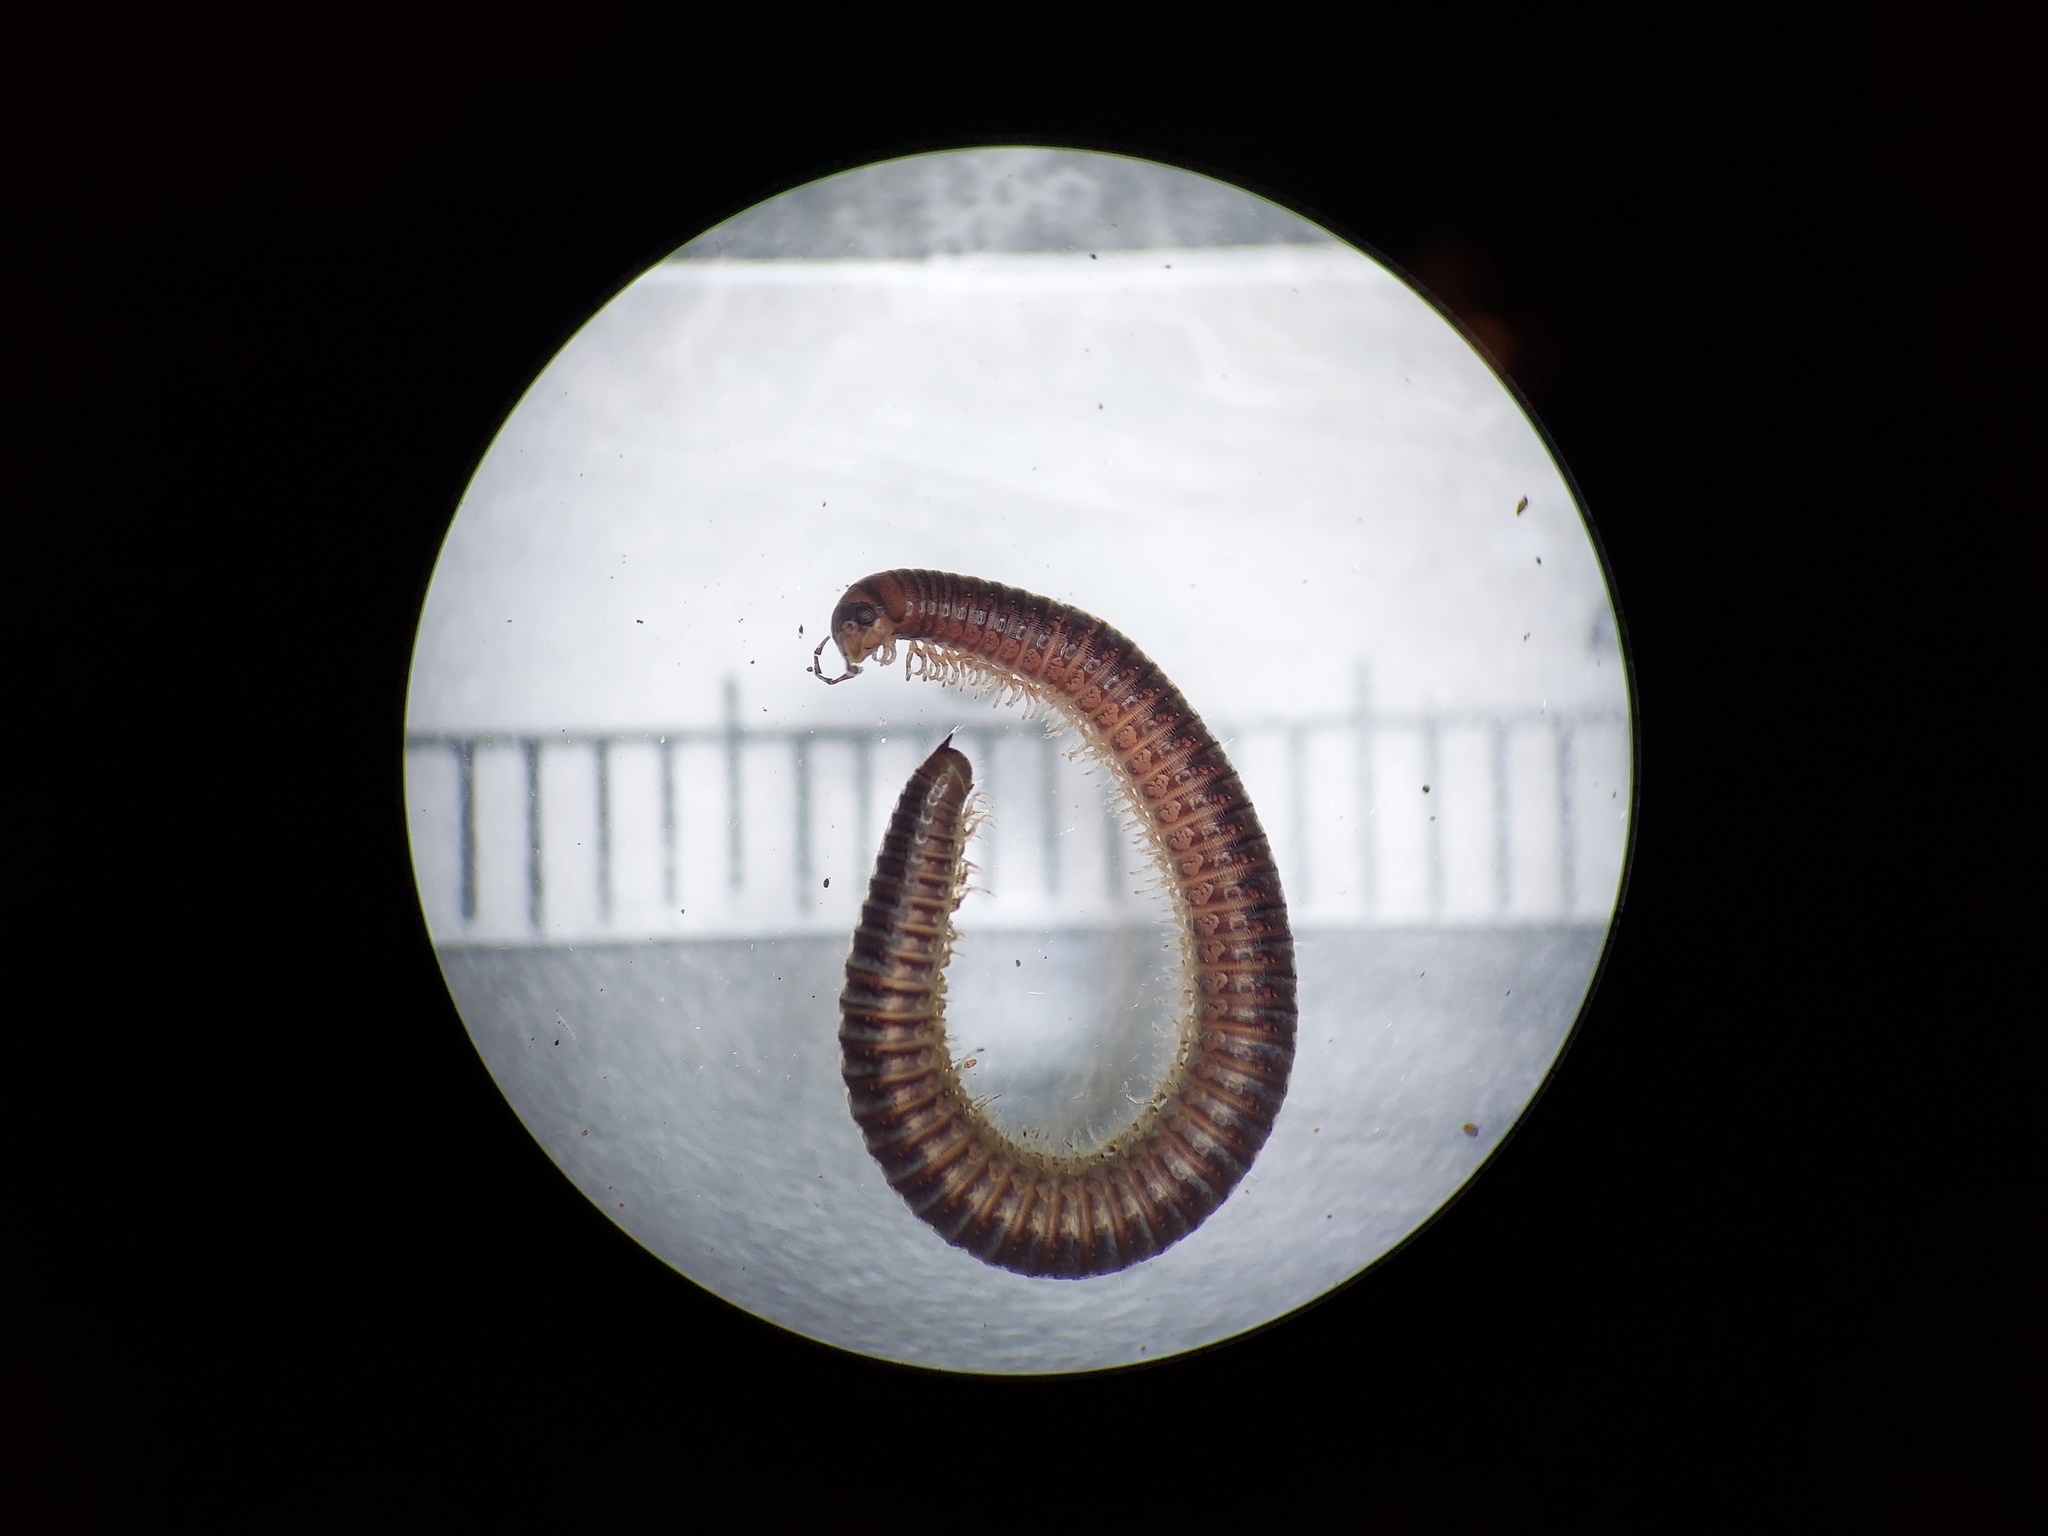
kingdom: Animalia
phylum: Arthropoda
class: Diplopoda
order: Julida
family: Julidae
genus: Ophyiulus
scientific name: Ophyiulus pilosus
